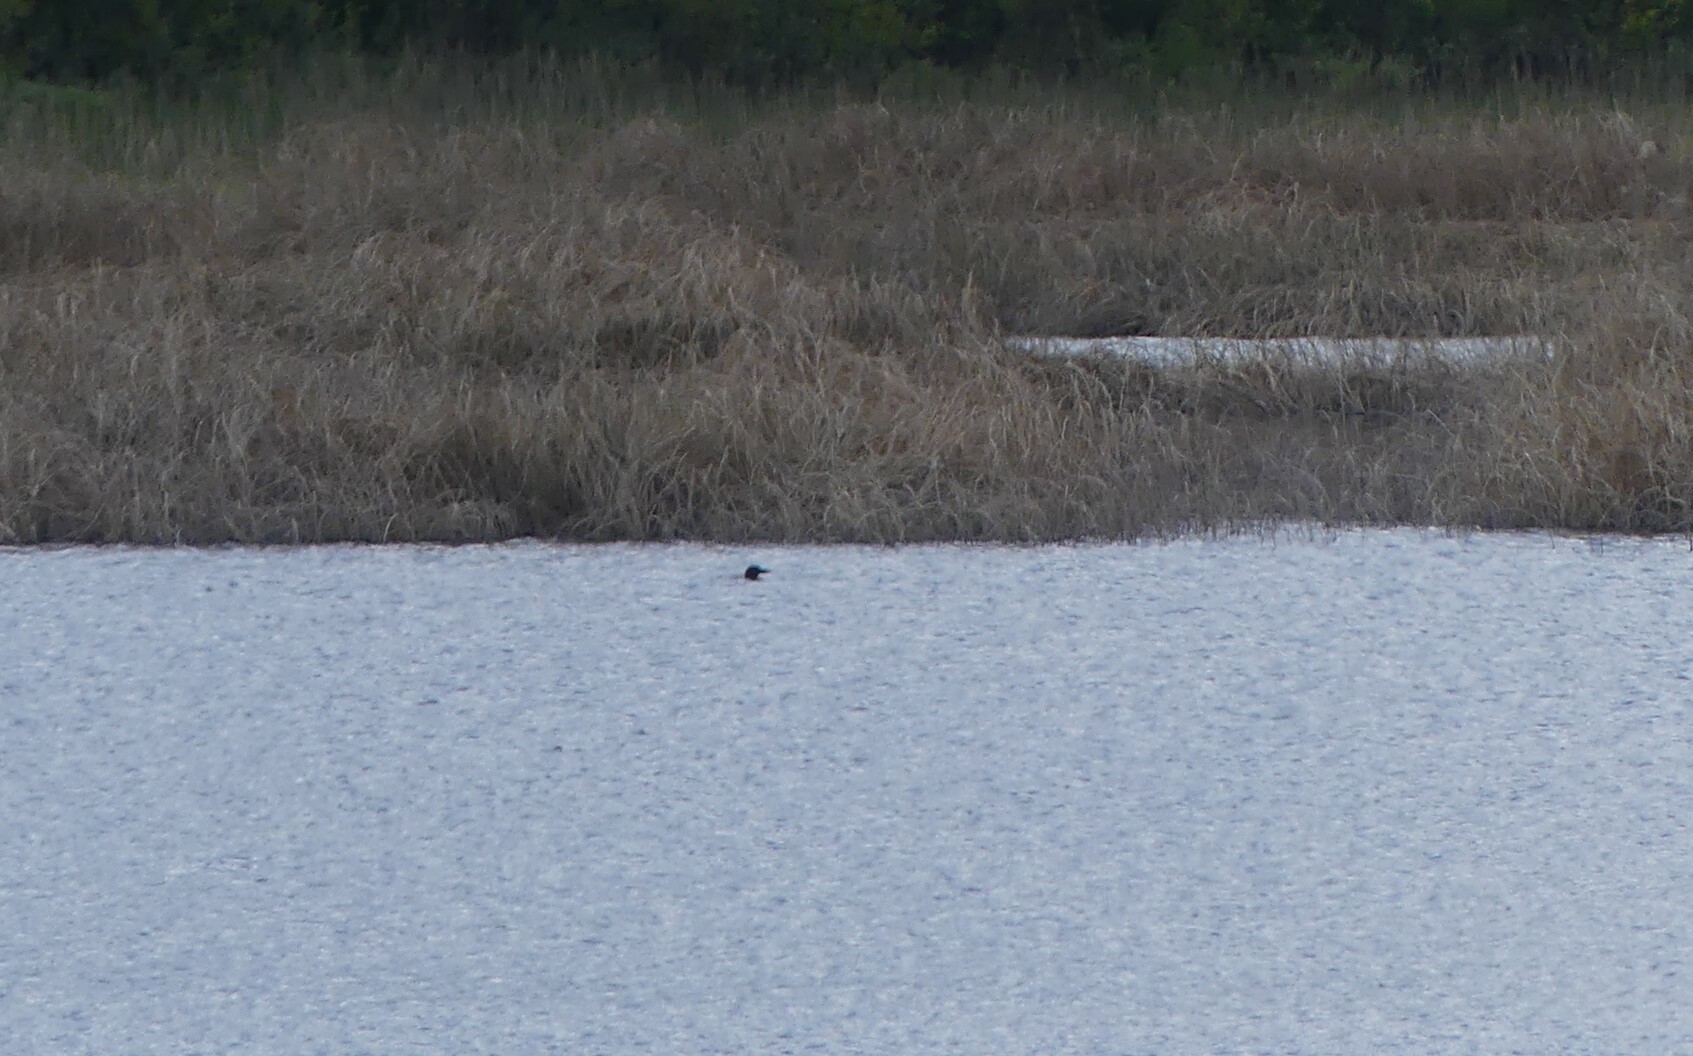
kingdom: Animalia
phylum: Chordata
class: Aves
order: Gaviiformes
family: Gaviidae
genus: Gavia
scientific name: Gavia immer
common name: Common loon
